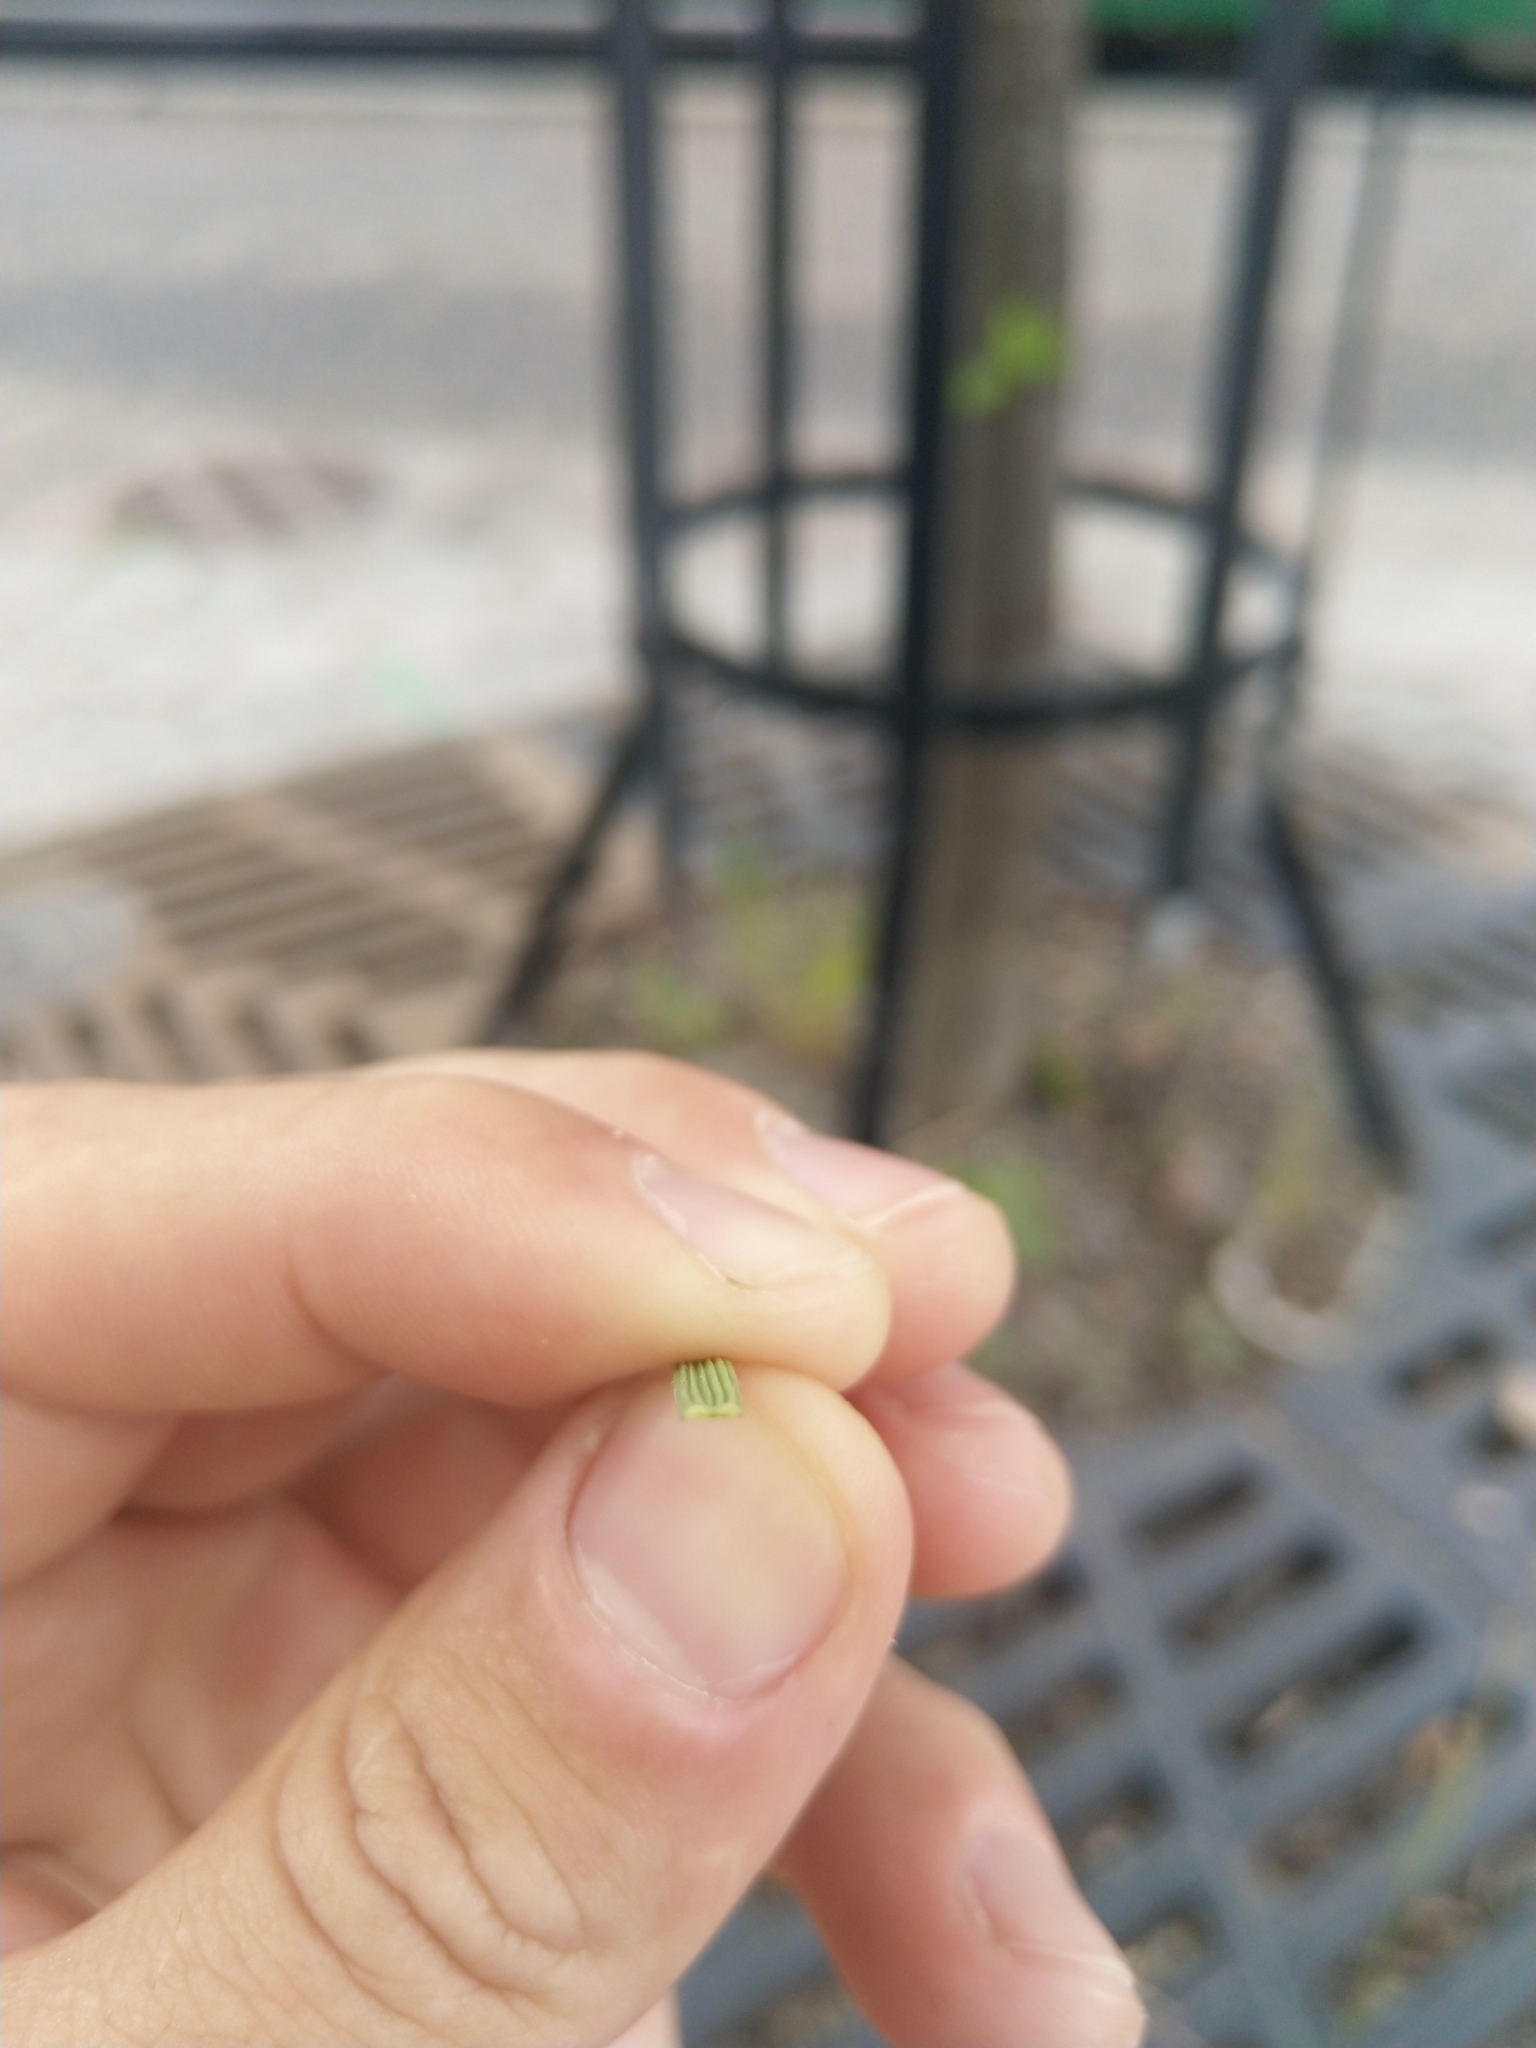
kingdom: Plantae
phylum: Tracheophyta
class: Liliopsida
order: Poales
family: Poaceae
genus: Deschampsia
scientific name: Deschampsia cespitosa
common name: Tufted hair-grass
